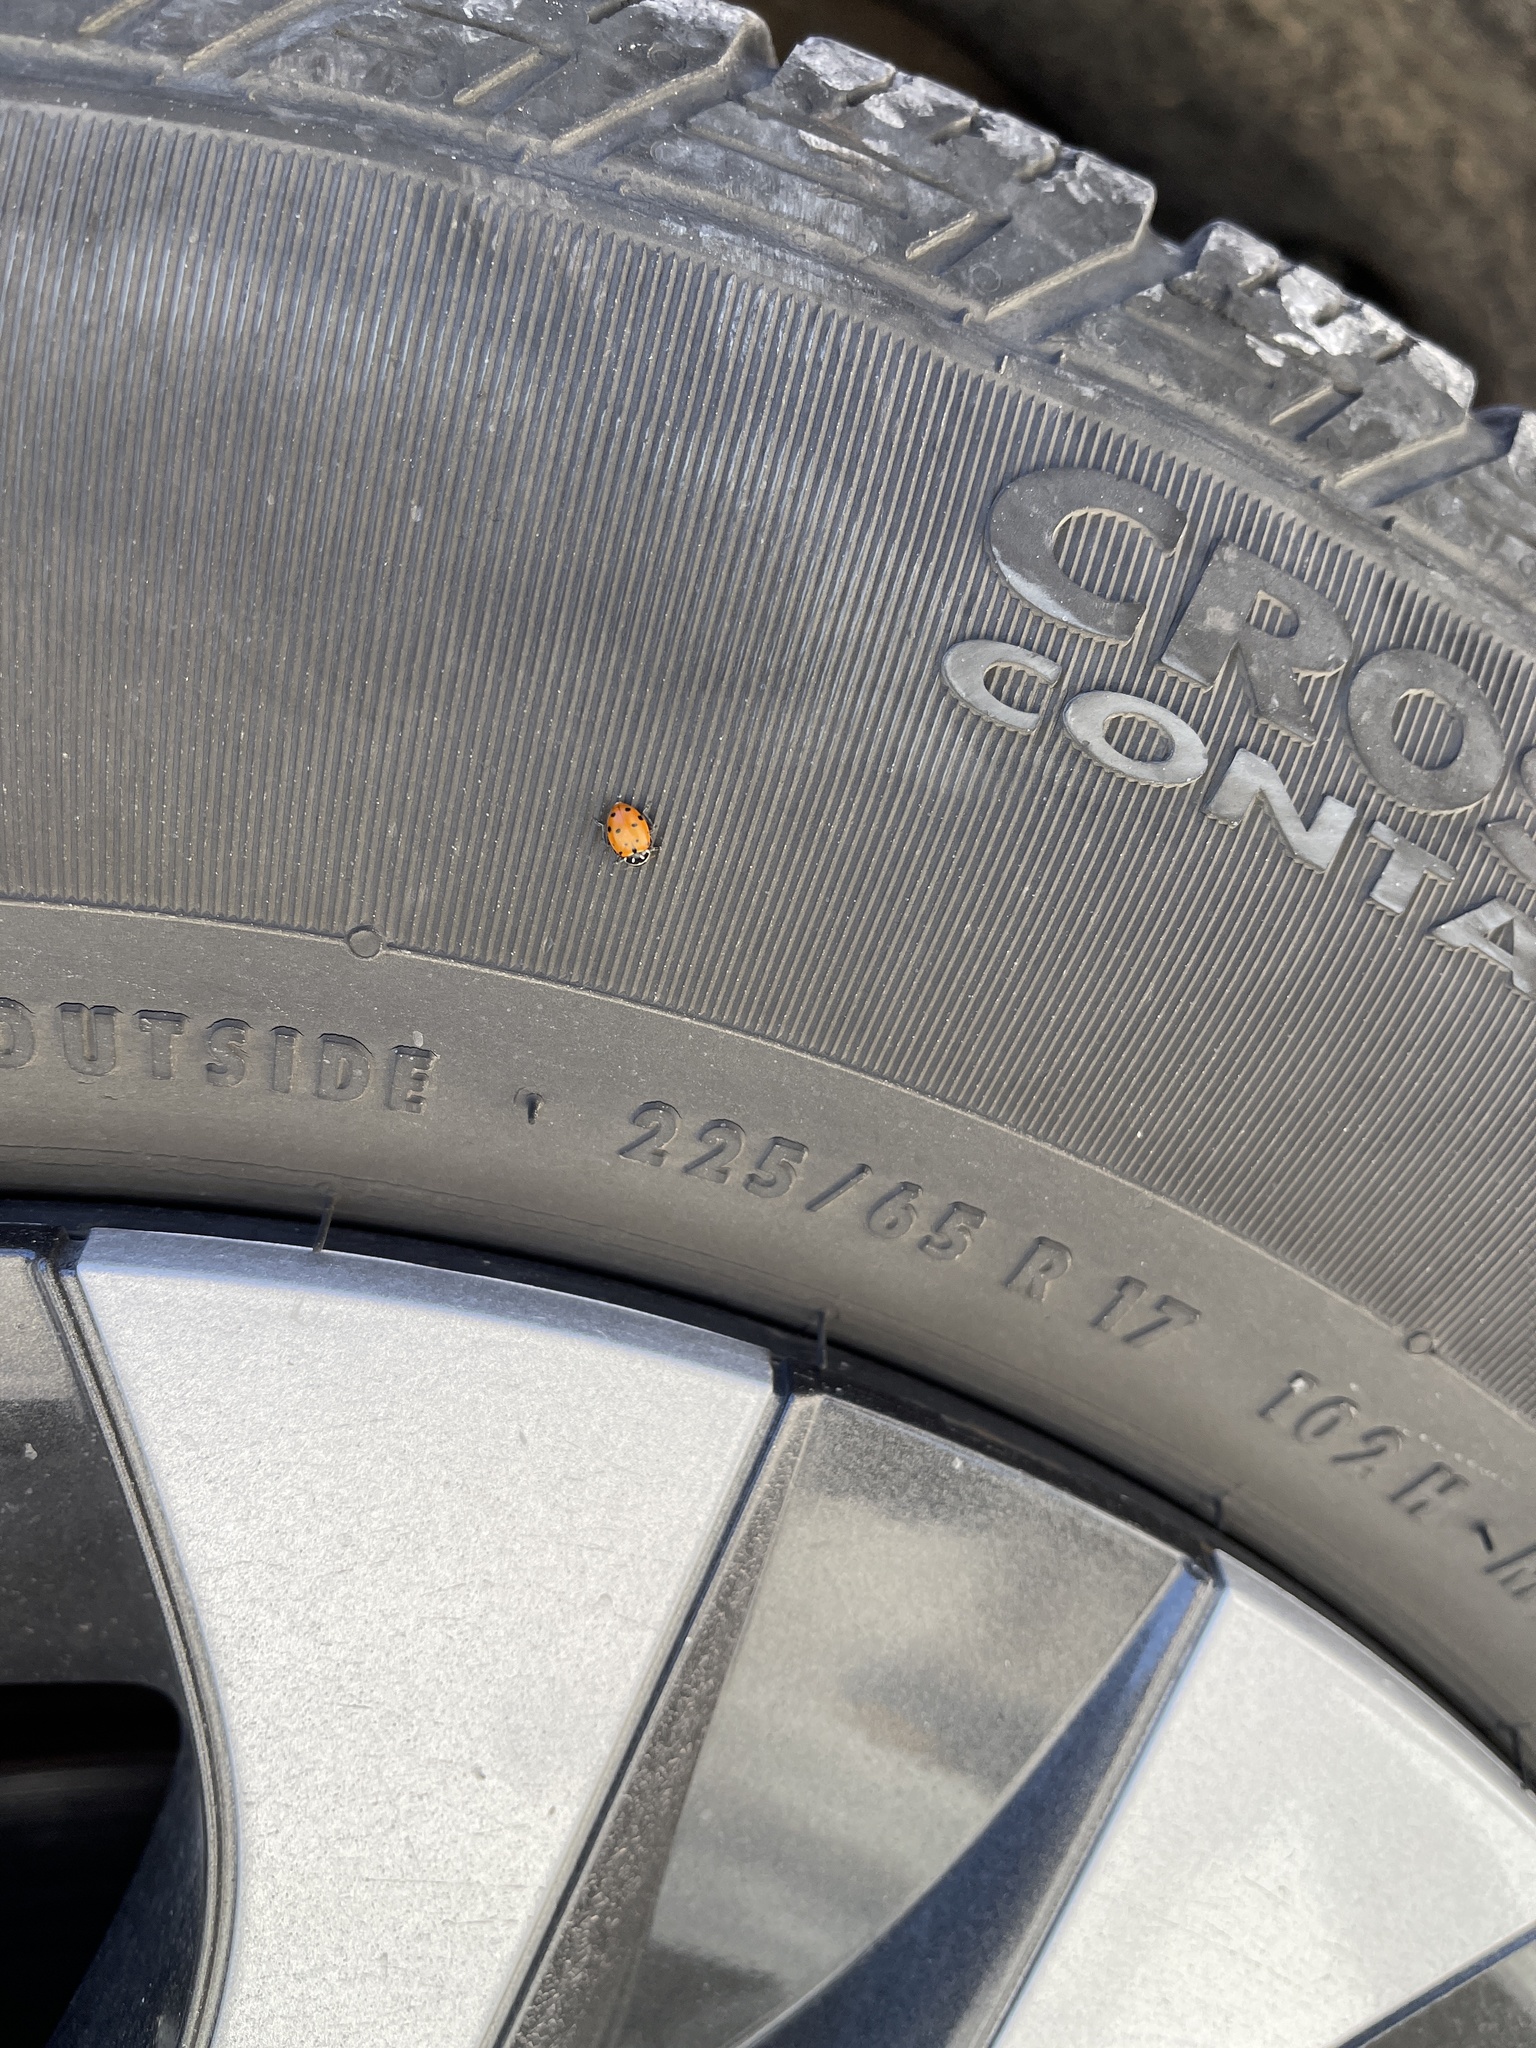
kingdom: Animalia
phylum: Arthropoda
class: Insecta
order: Coleoptera
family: Coccinellidae
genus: Hippodamia
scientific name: Hippodamia convergens
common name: Convergent lady beetle
